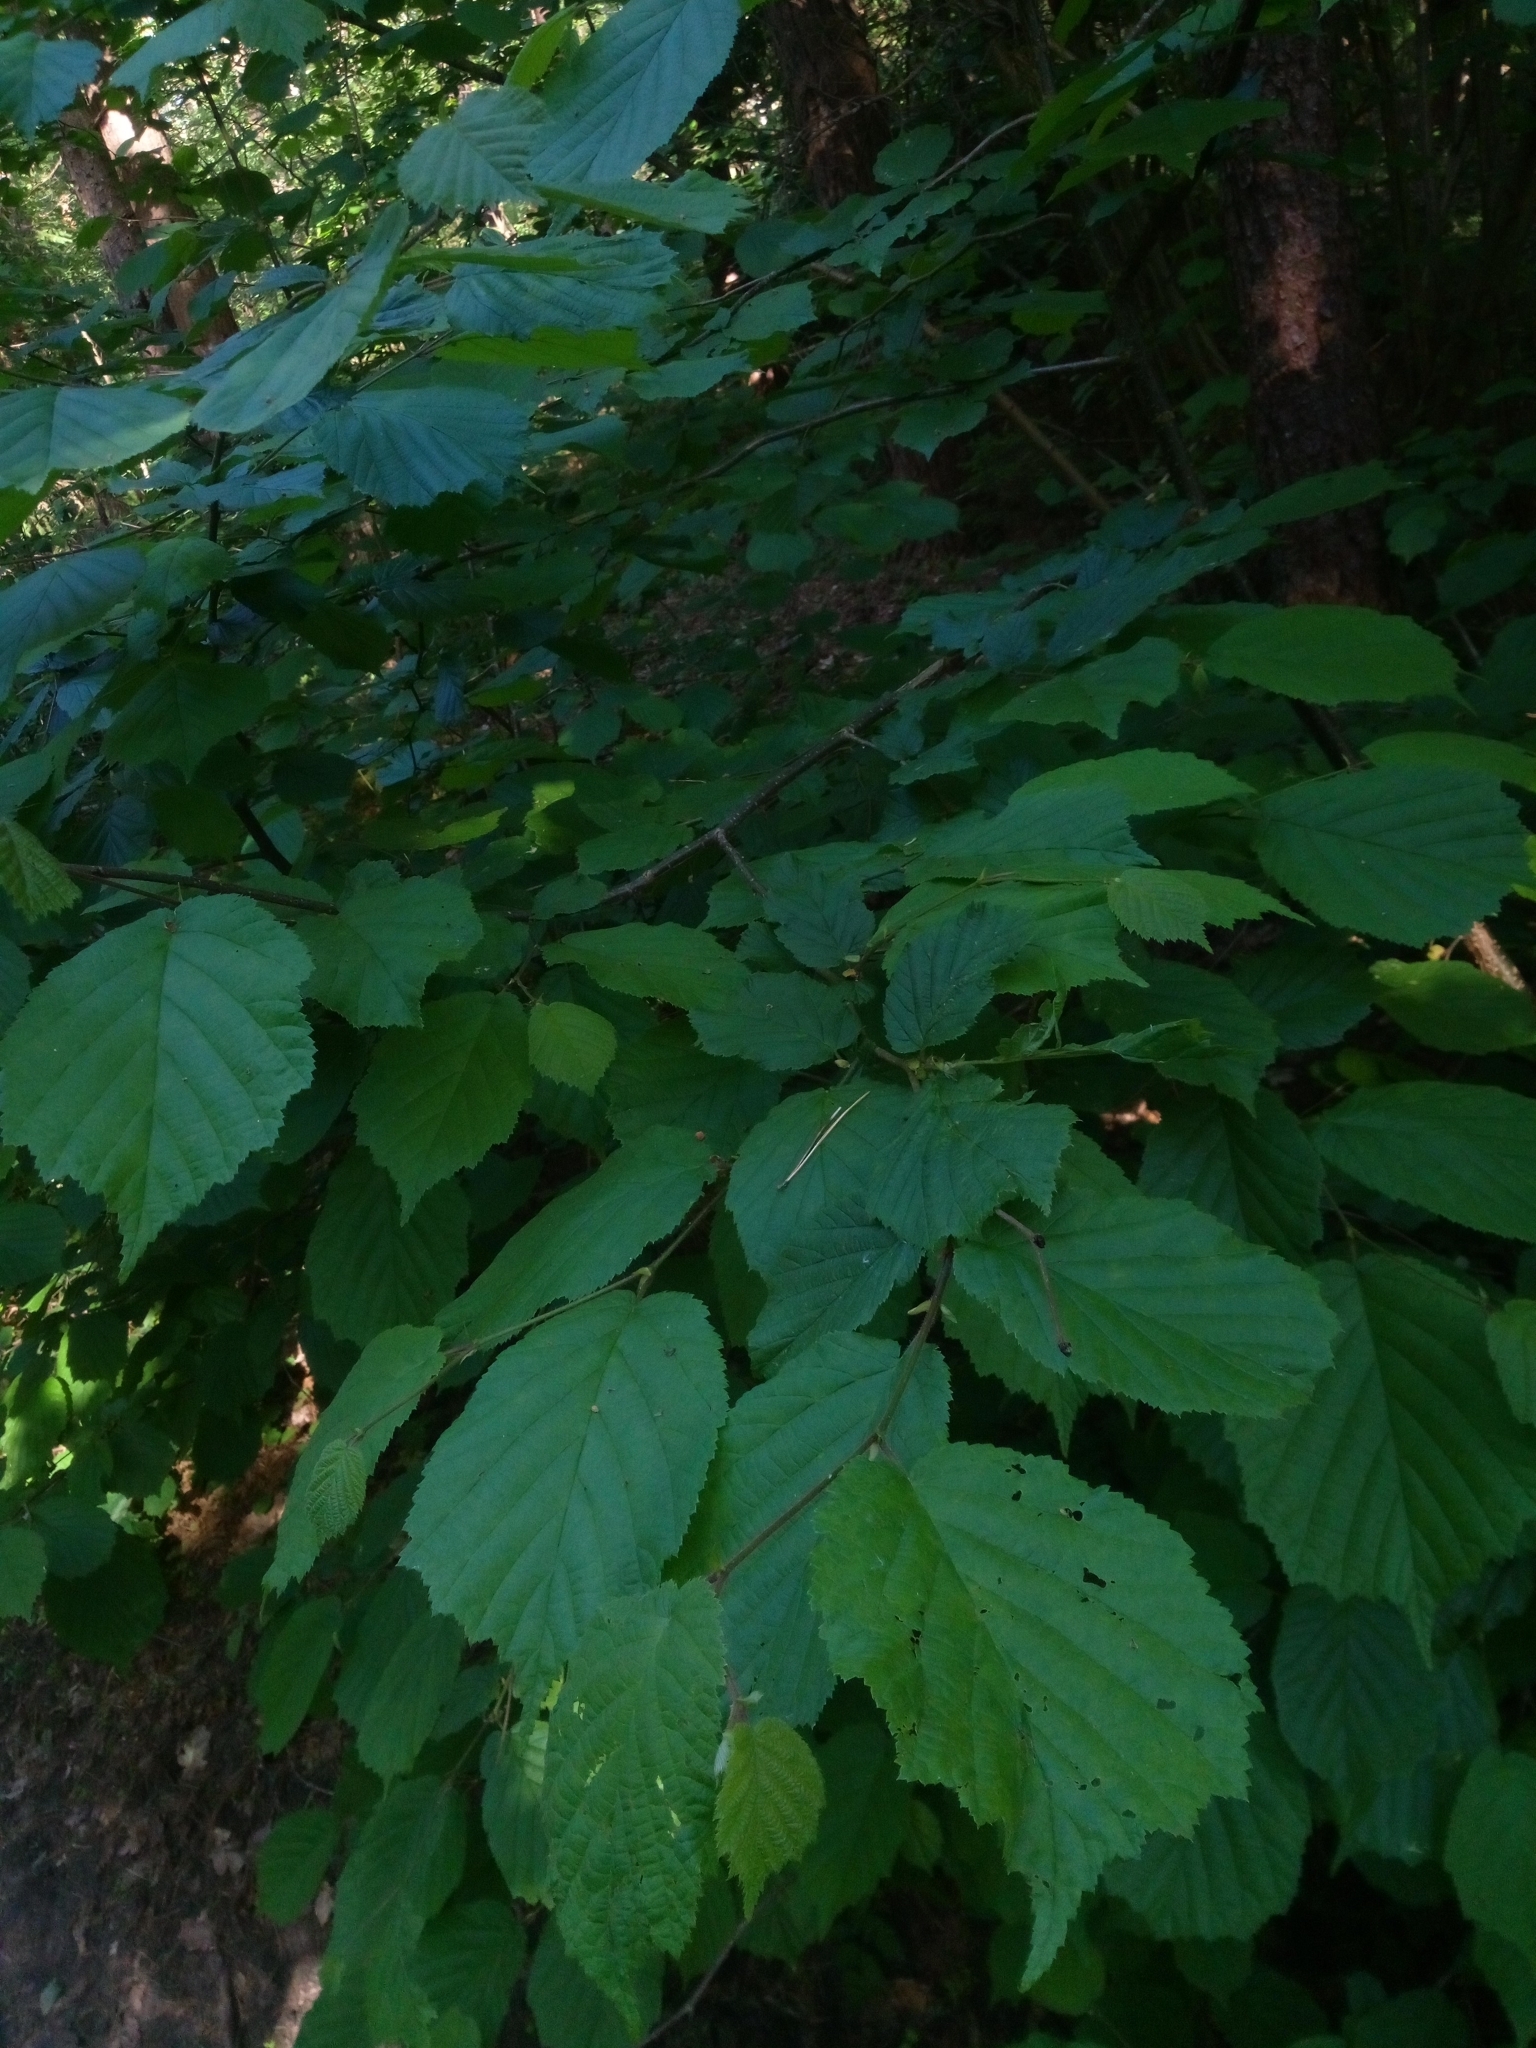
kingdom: Plantae
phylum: Tracheophyta
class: Magnoliopsida
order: Fagales
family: Betulaceae
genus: Corylus
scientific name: Corylus avellana
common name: European hazel
